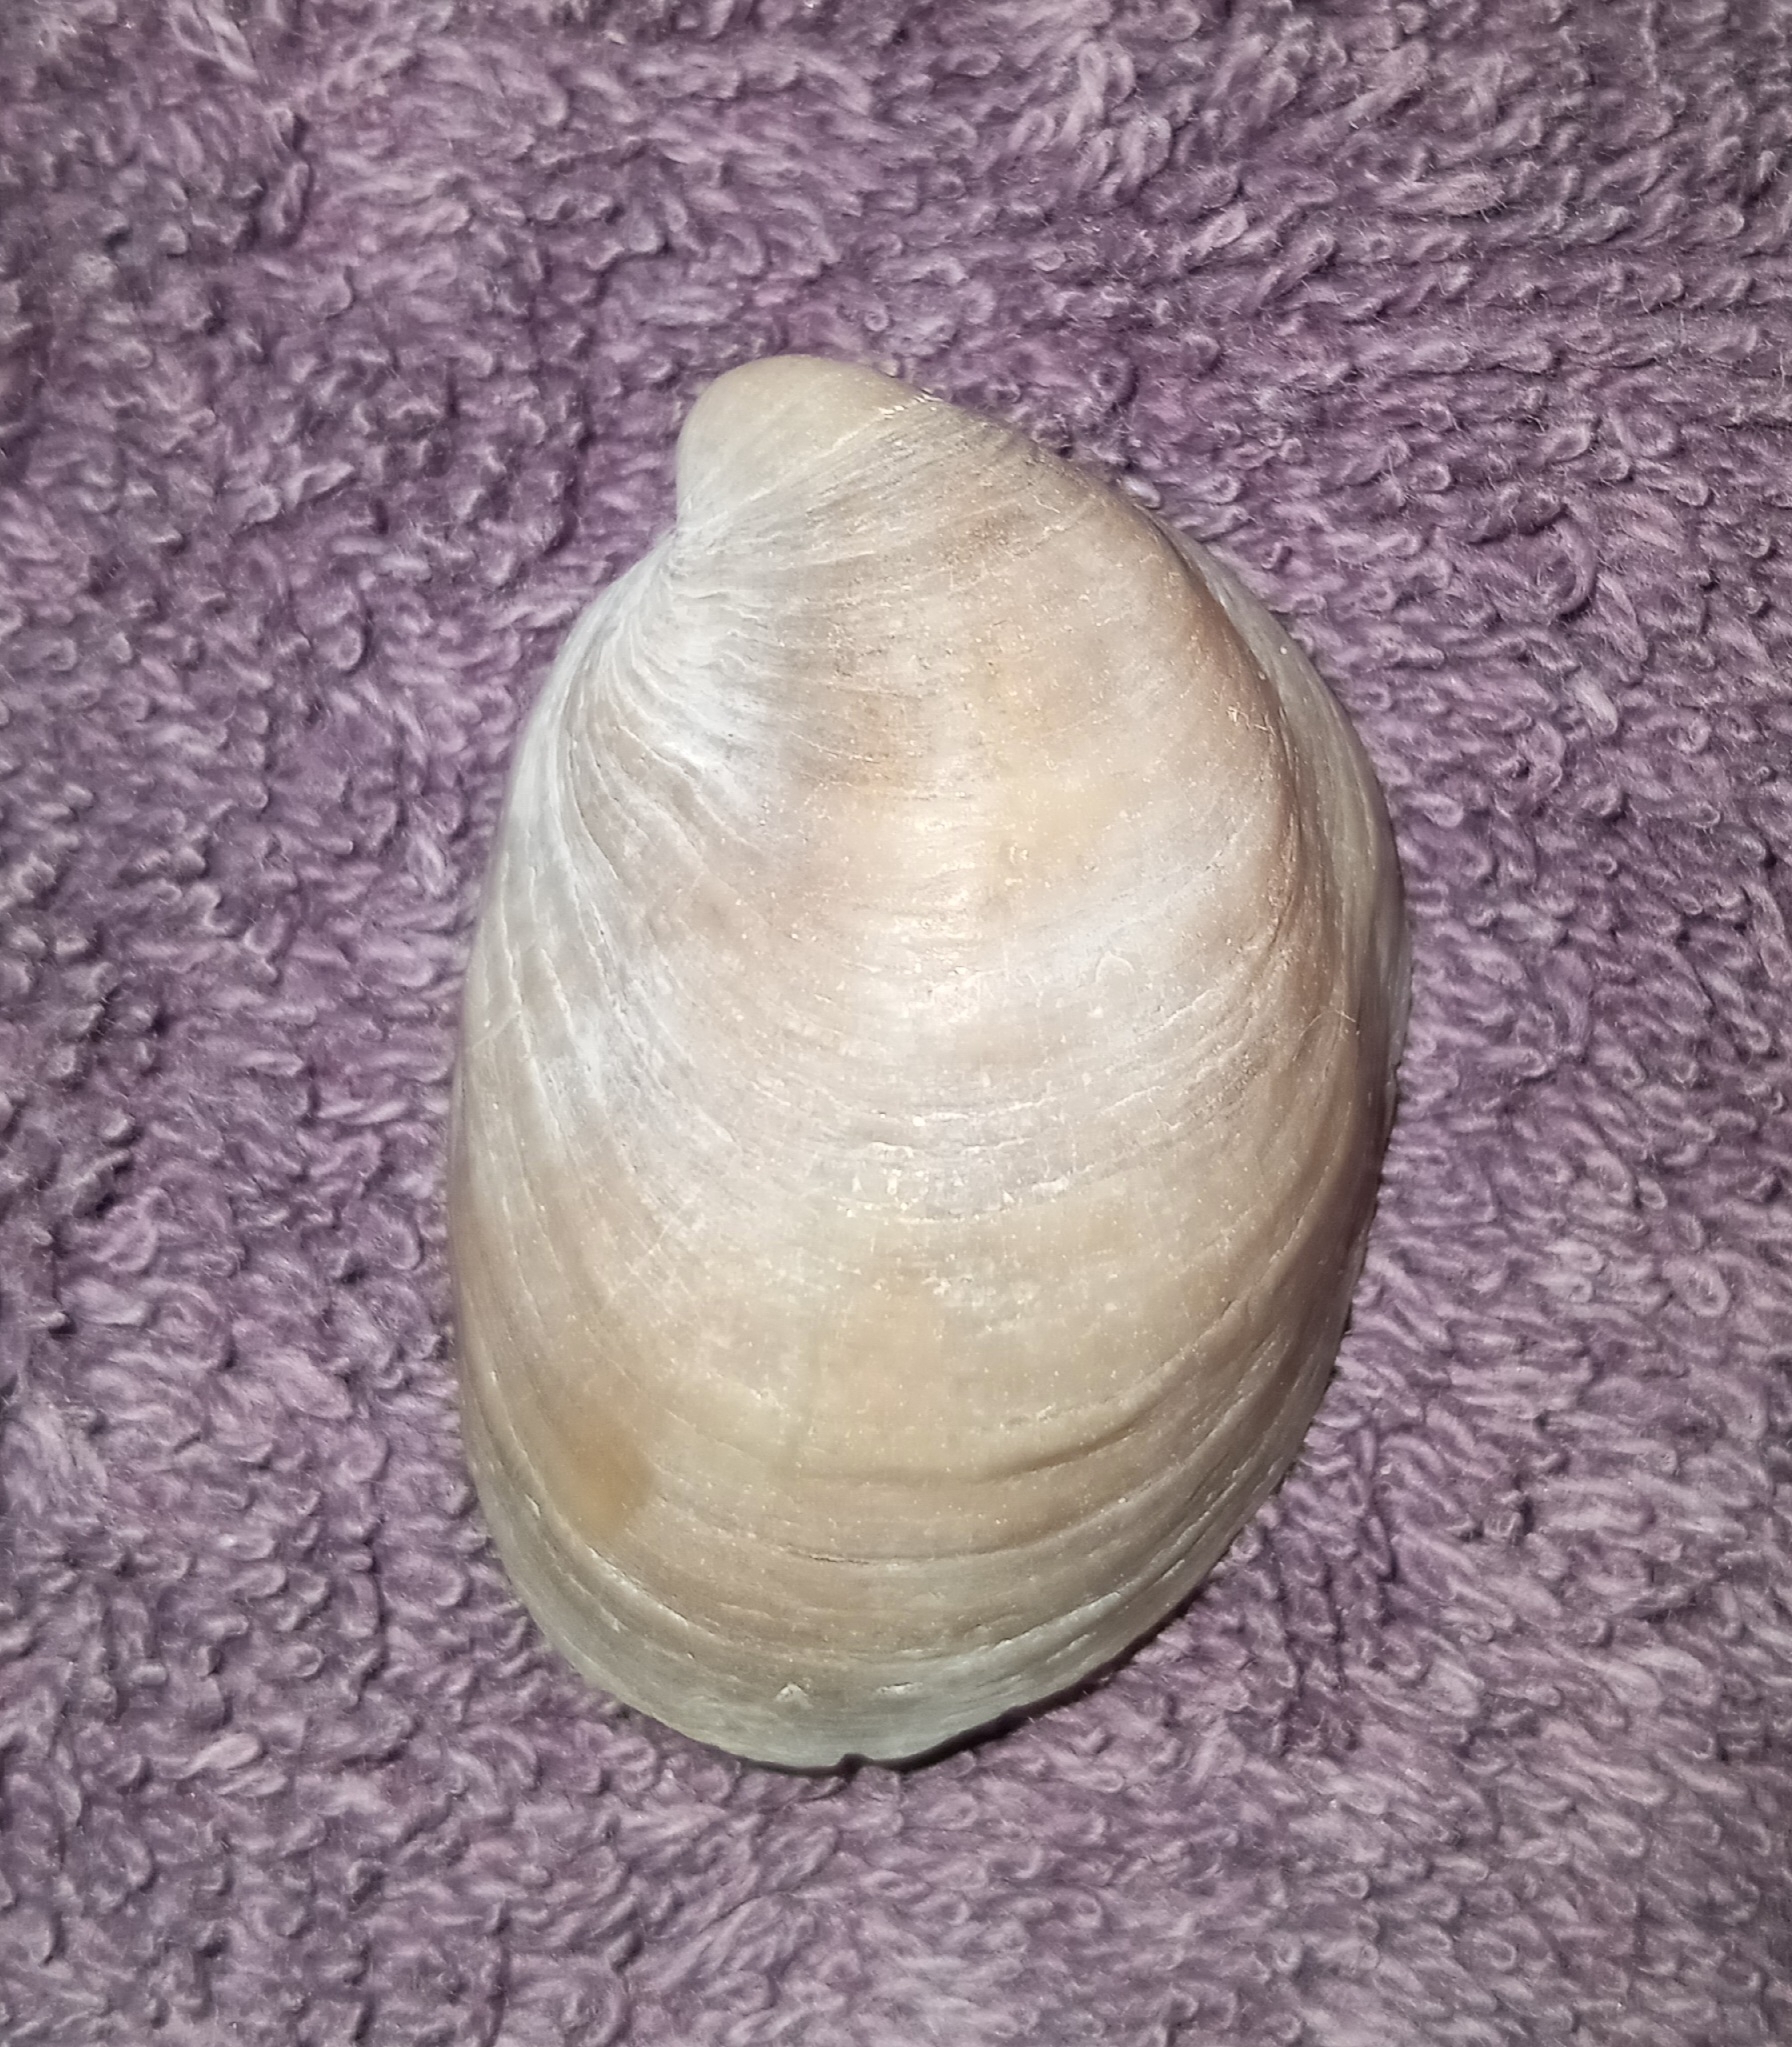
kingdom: Animalia
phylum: Mollusca
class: Gastropoda
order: Littorinimorpha
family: Calyptraeidae
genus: Crepidula
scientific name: Crepidula fornicata
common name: Slipper limpet
